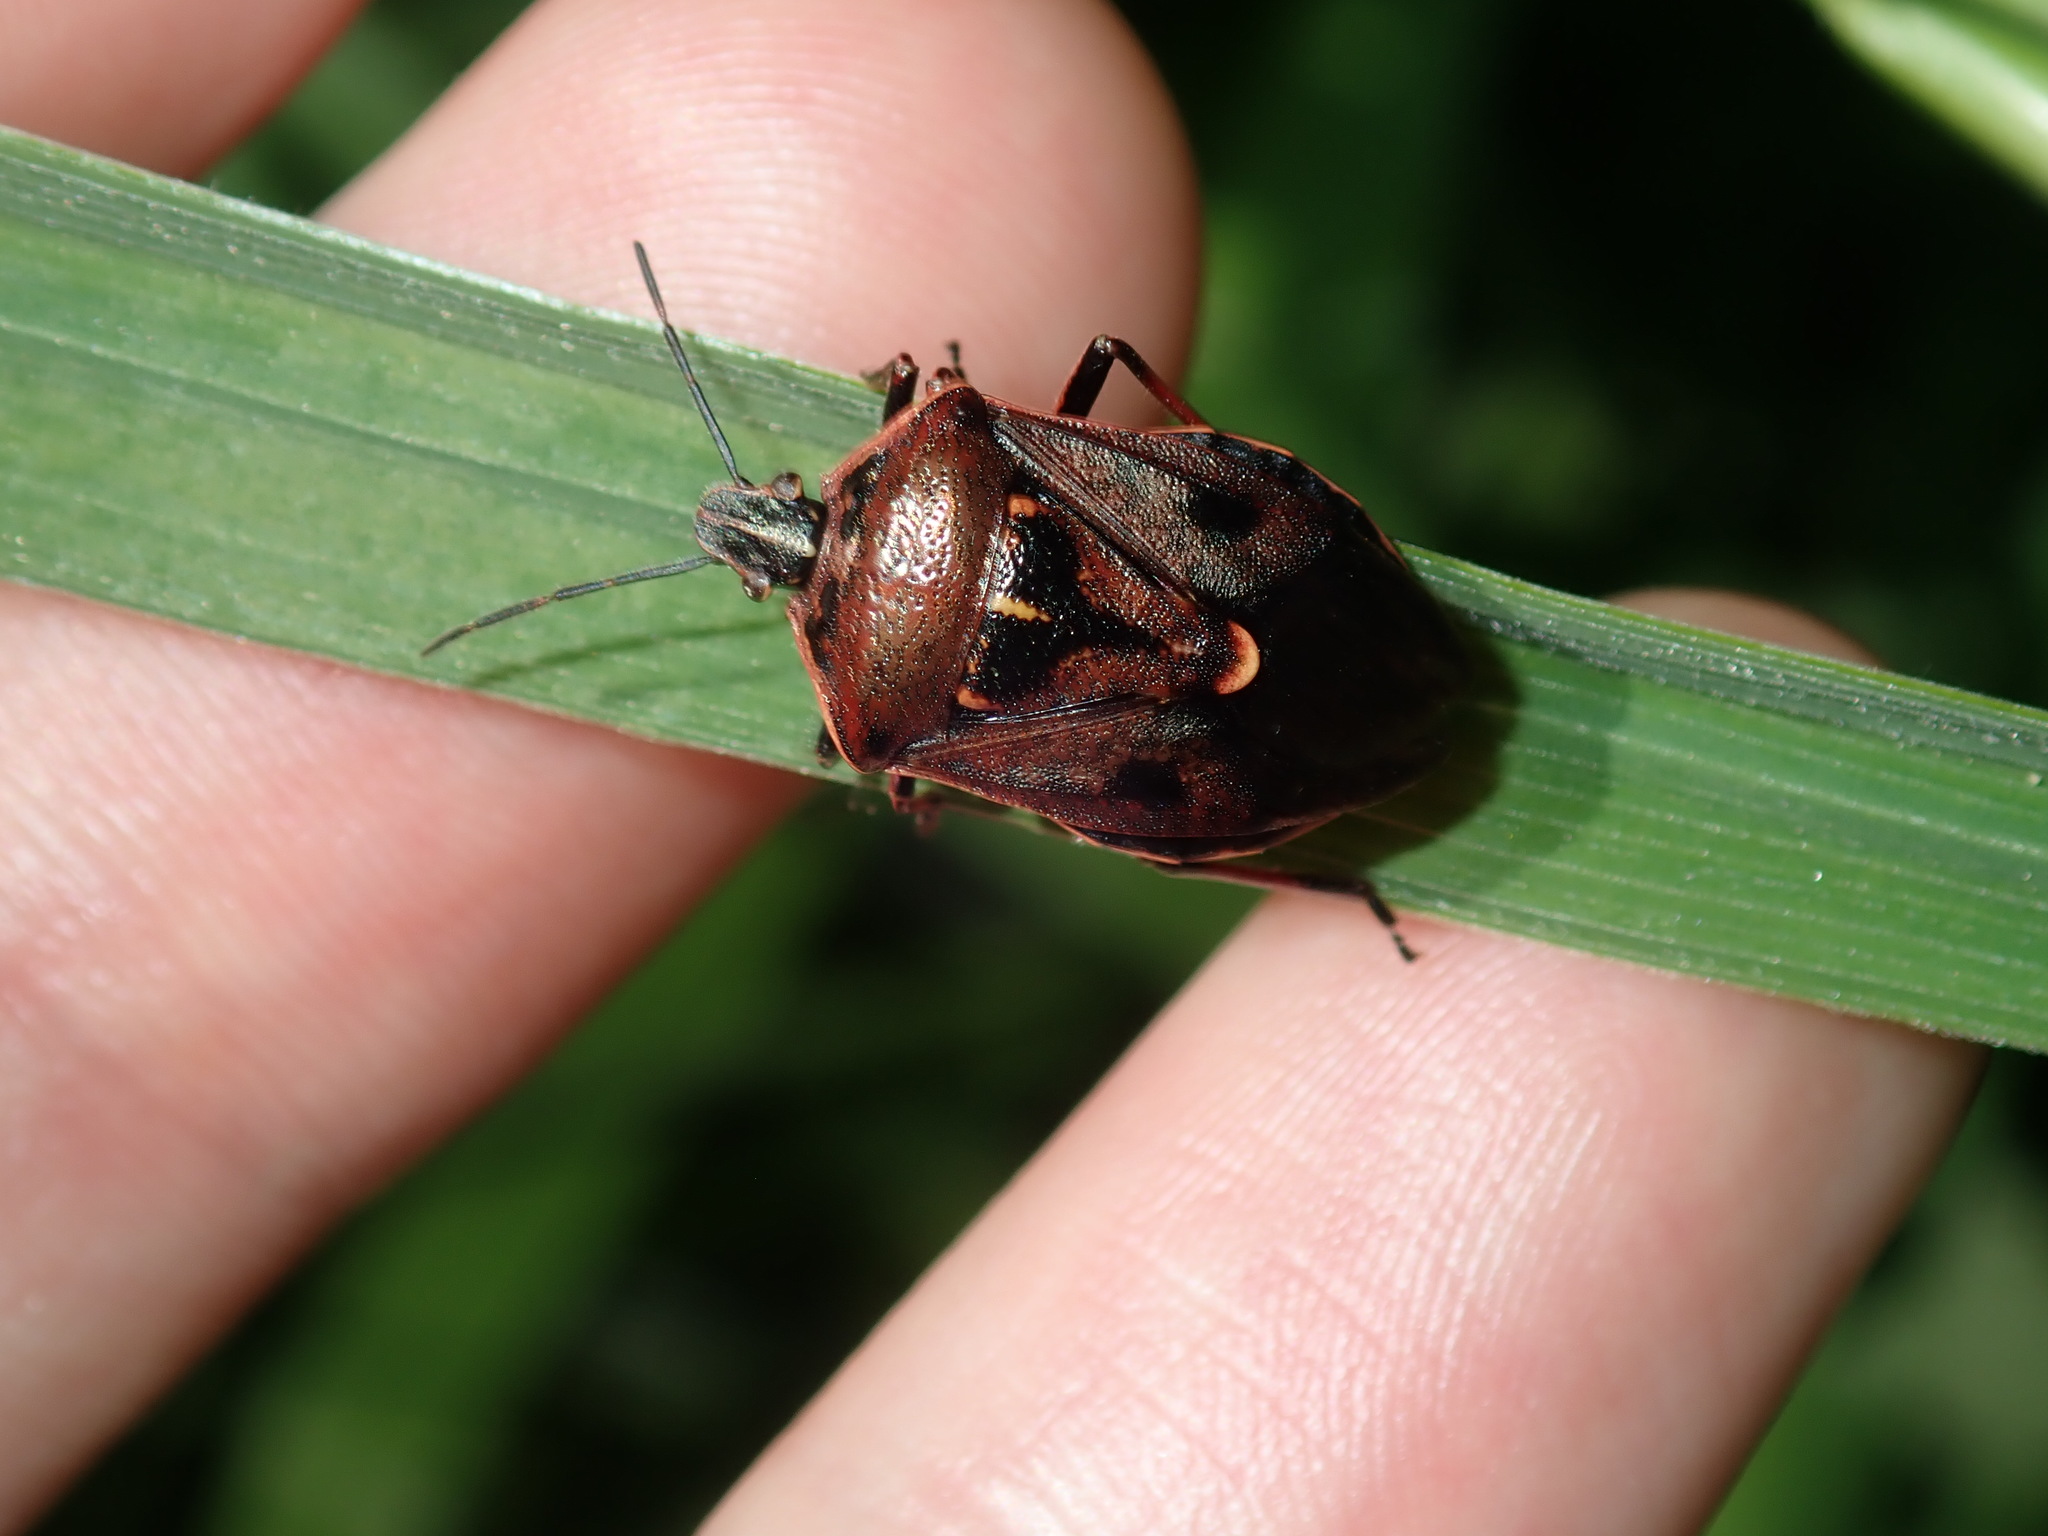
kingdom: Animalia
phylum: Arthropoda
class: Insecta
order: Hemiptera
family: Pentatomidae
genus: Cermatulus
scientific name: Cermatulus nasalis
